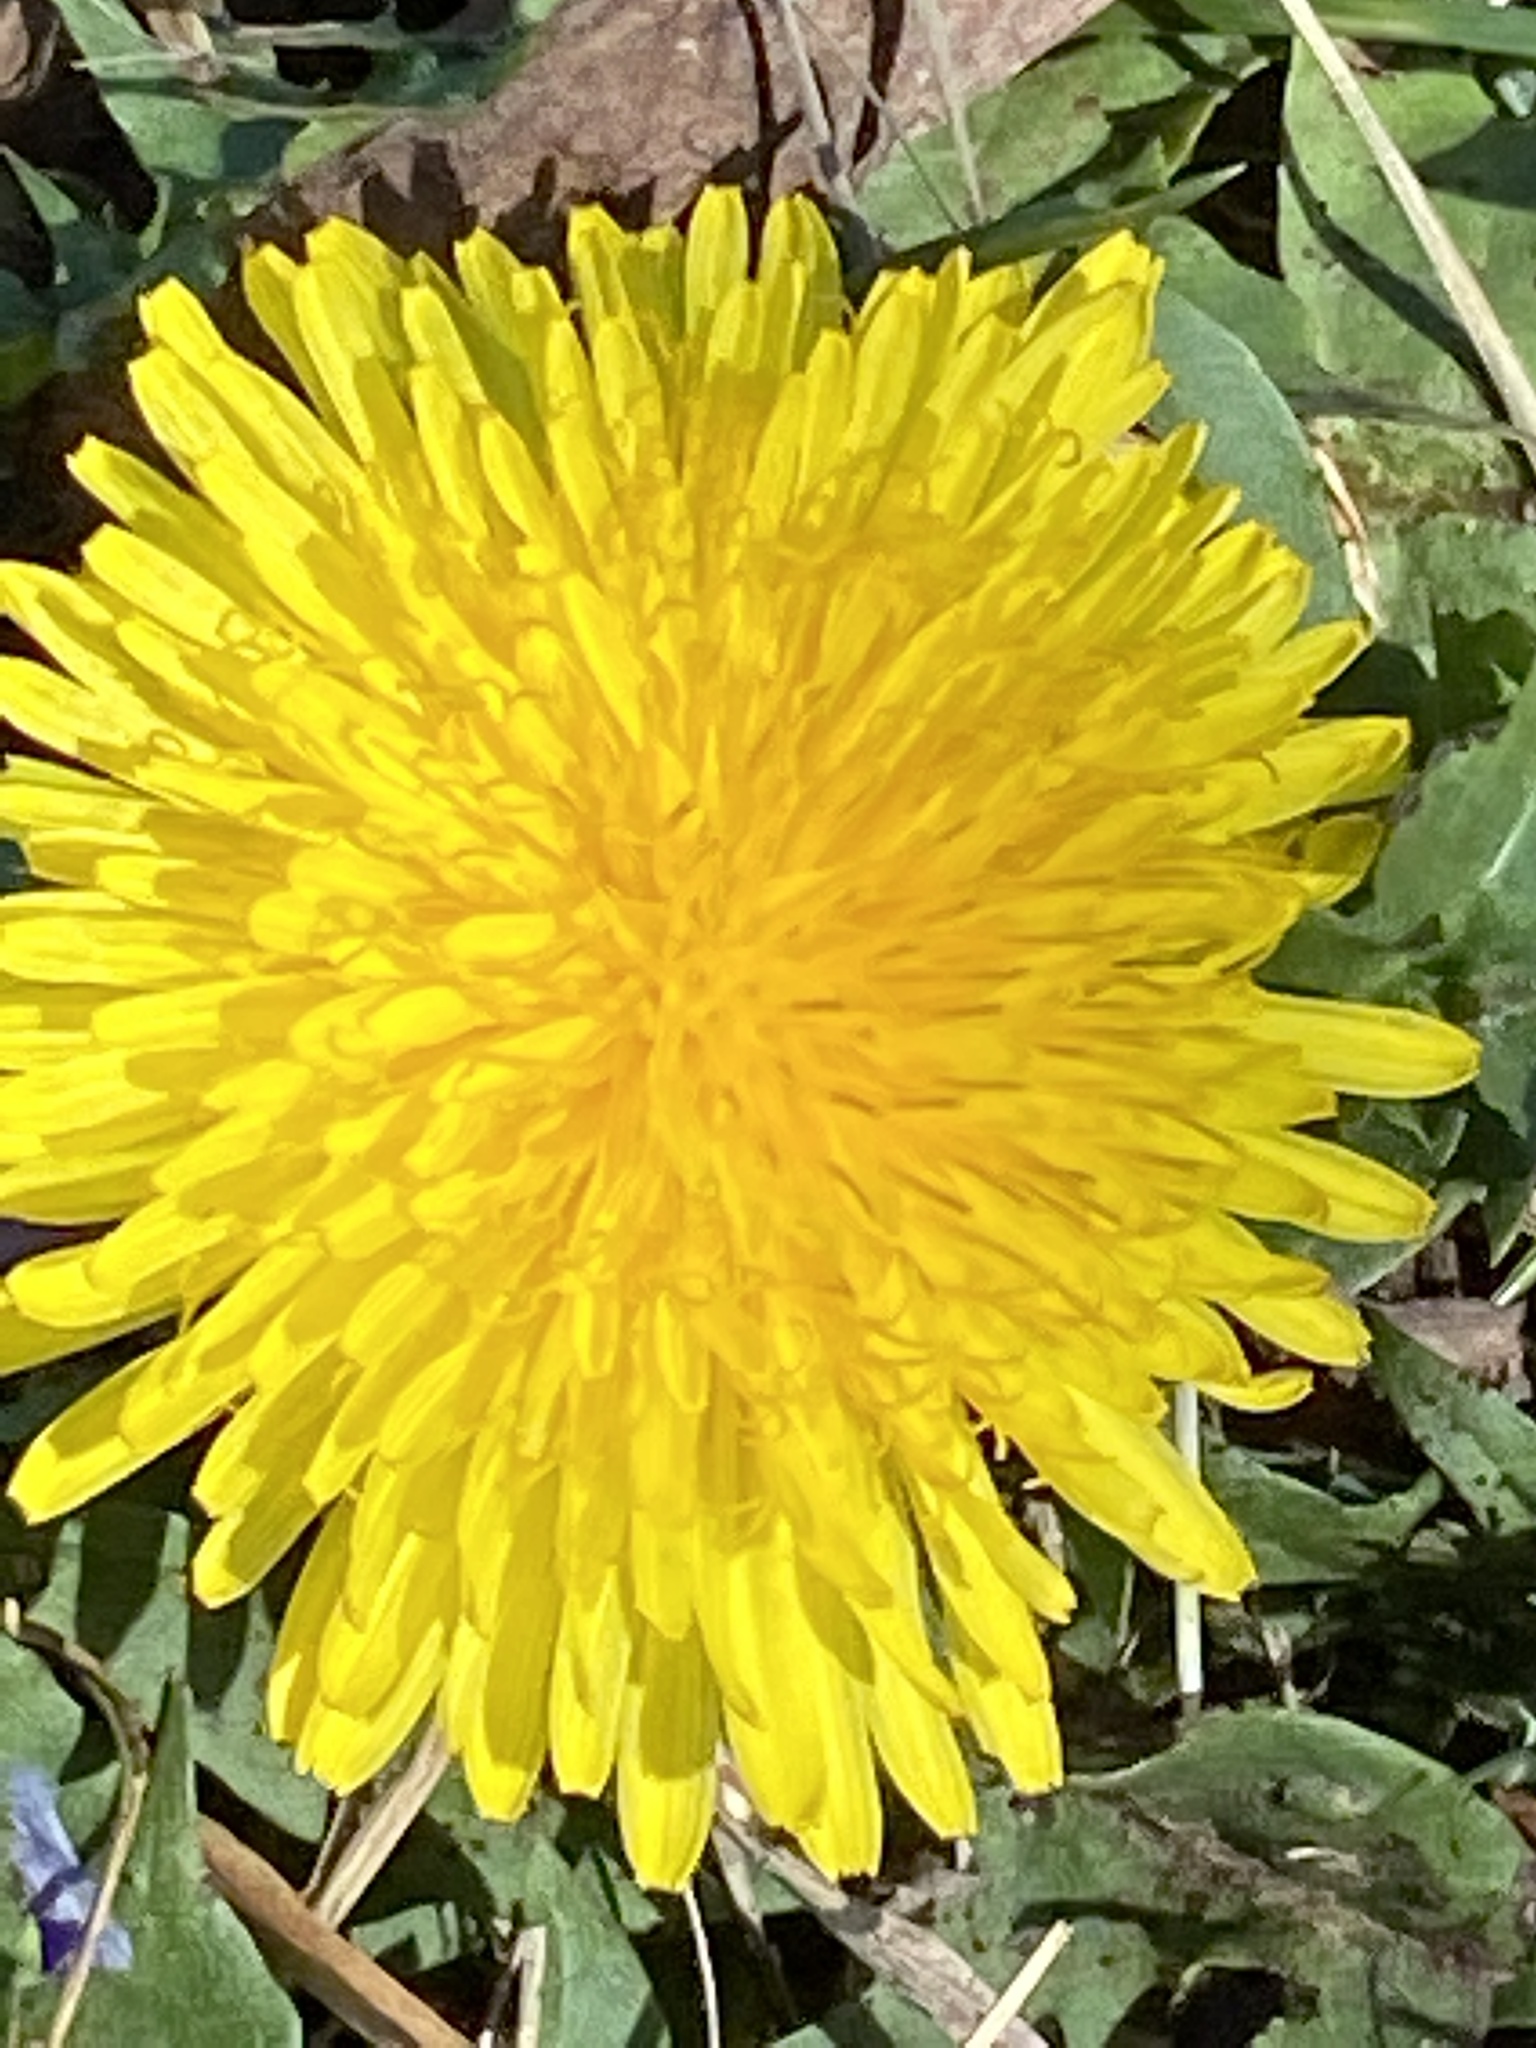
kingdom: Plantae
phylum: Tracheophyta
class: Magnoliopsida
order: Asterales
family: Asteraceae
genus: Taraxacum
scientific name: Taraxacum officinale
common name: Common dandelion
